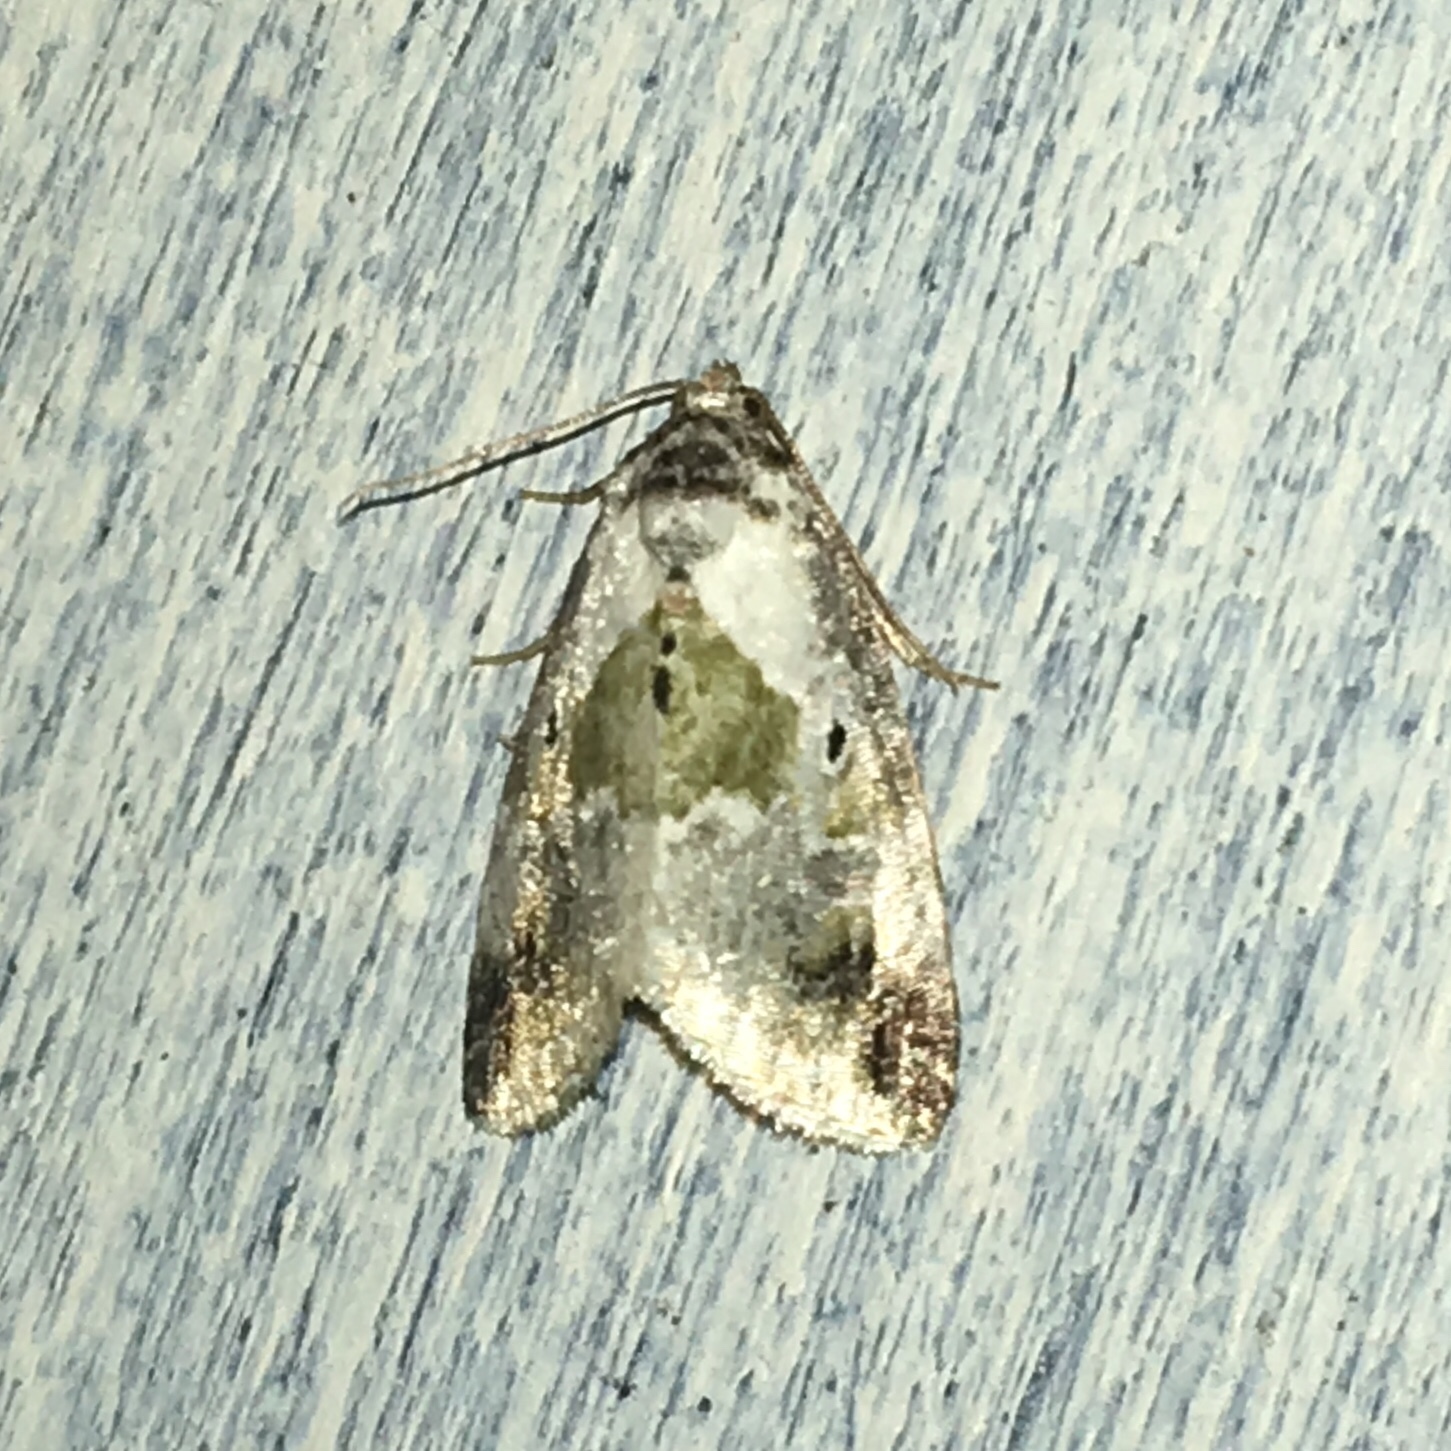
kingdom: Animalia
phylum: Arthropoda
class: Insecta
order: Lepidoptera
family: Noctuidae
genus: Maliattha
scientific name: Maliattha synochitis
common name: Black-dotted glyph
